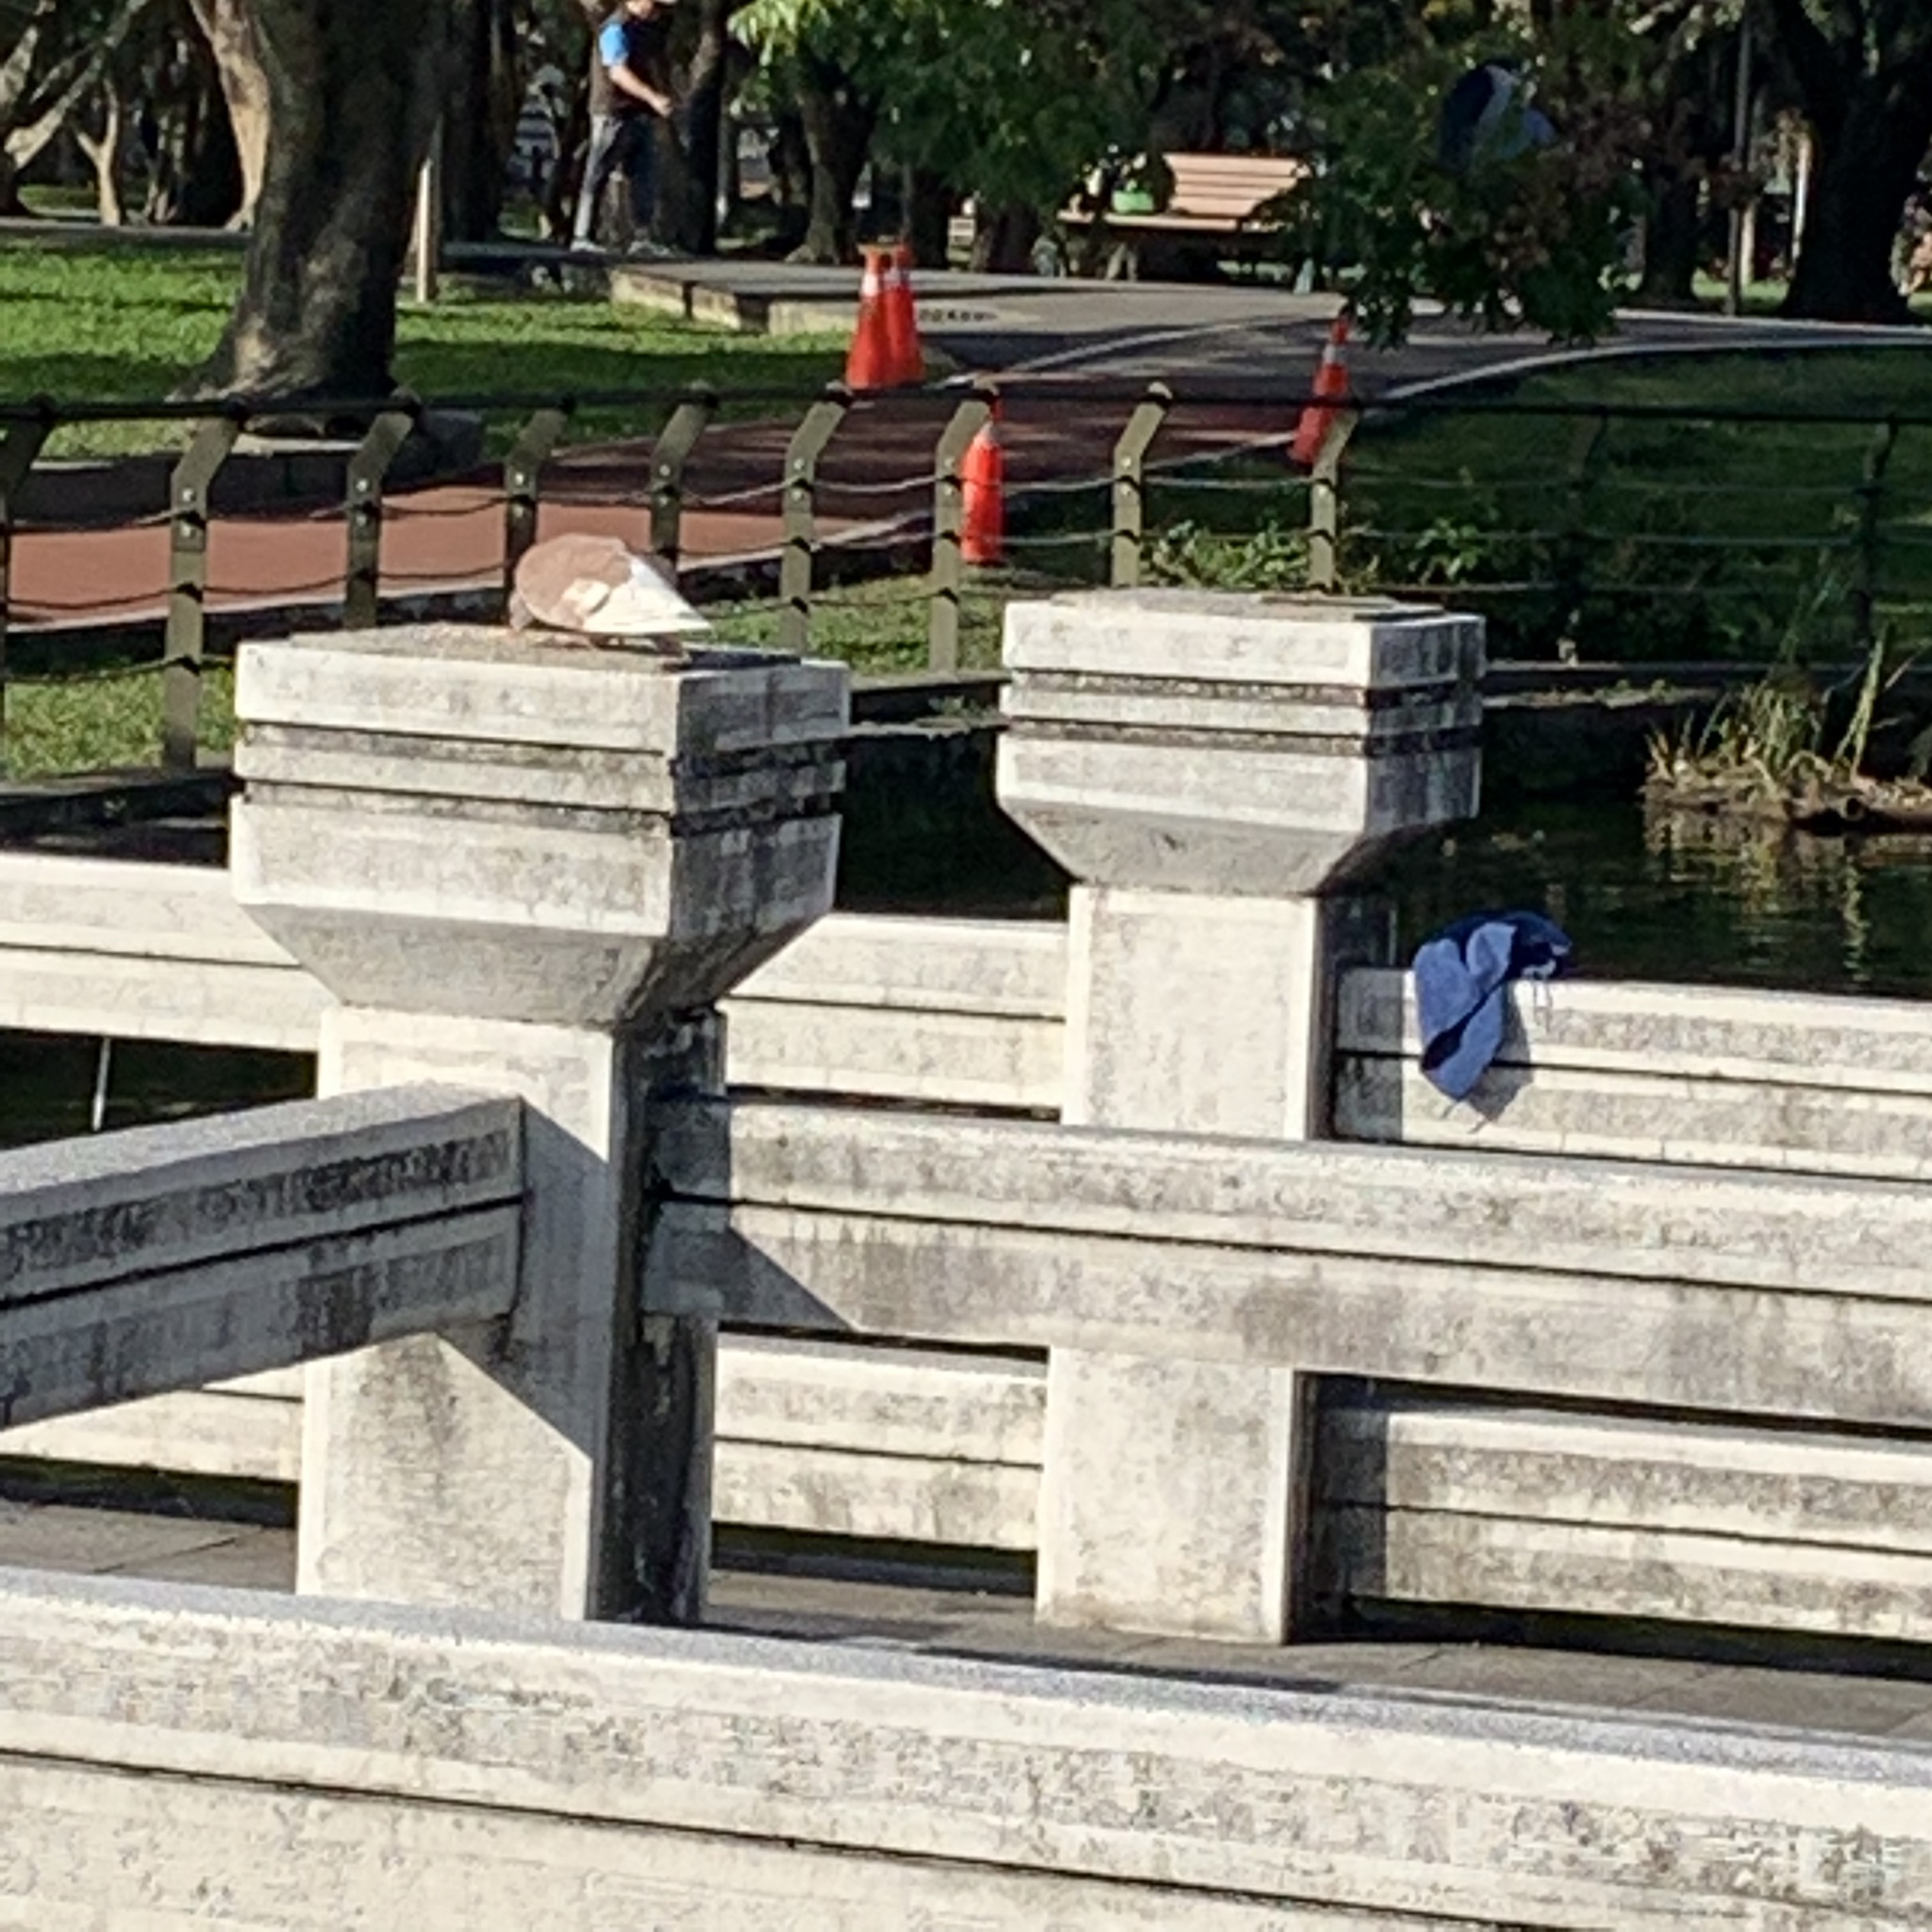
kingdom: Animalia
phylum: Chordata
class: Aves
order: Columbiformes
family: Columbidae
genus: Columba
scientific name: Columba livia
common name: Rock pigeon
